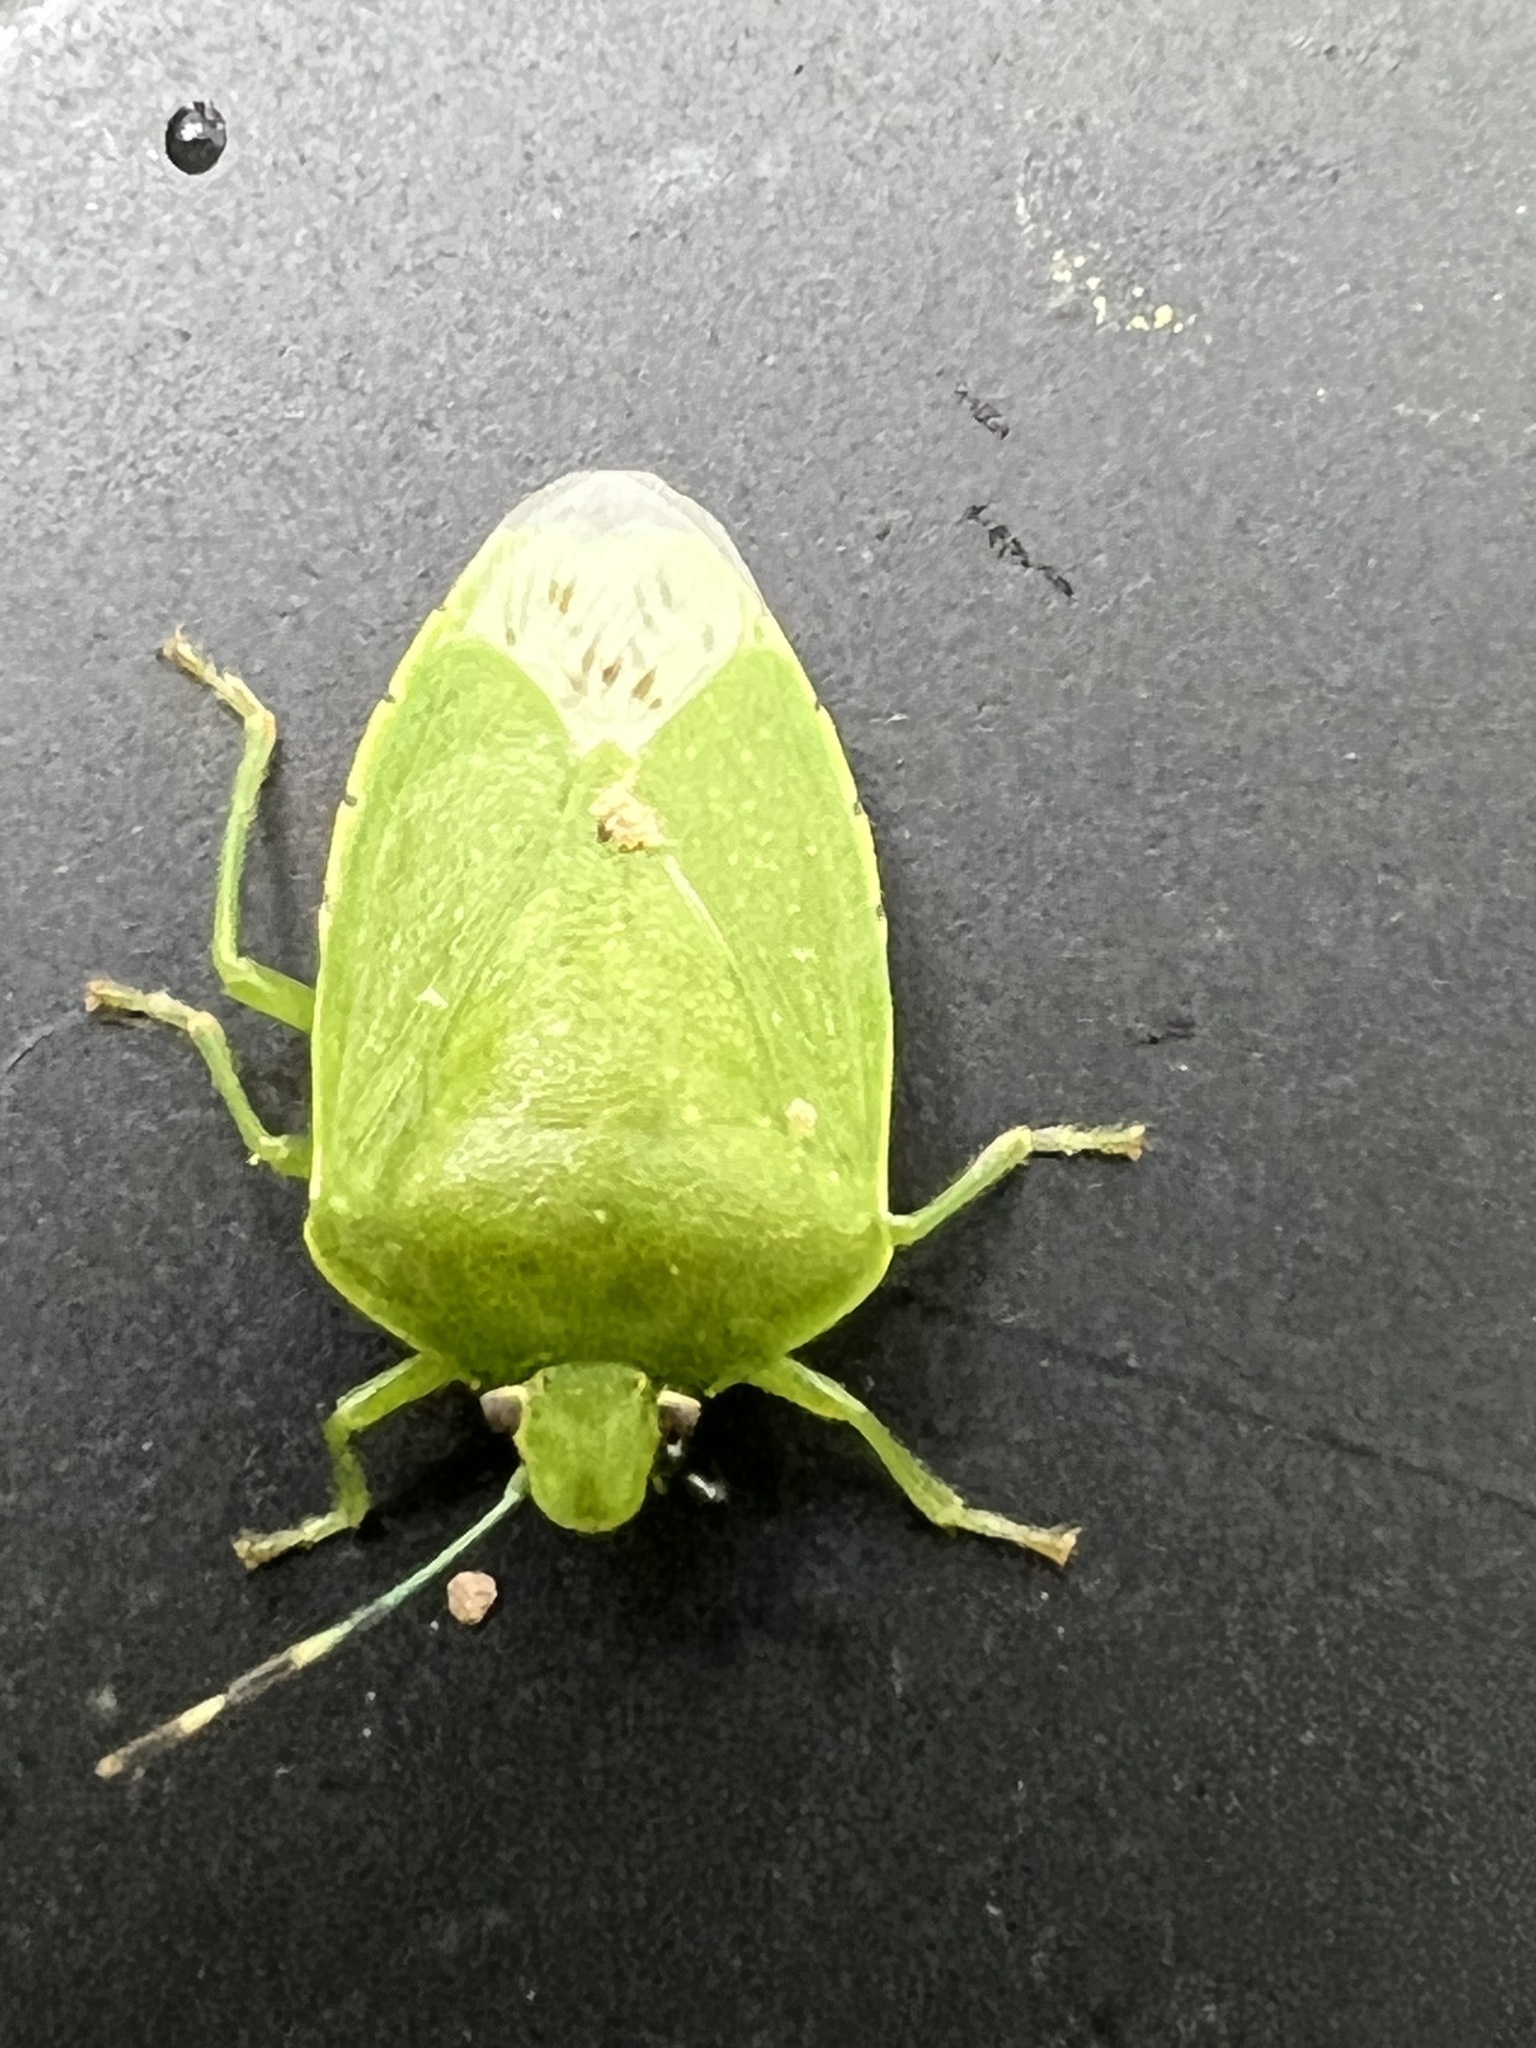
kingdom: Animalia
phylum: Arthropoda
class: Insecta
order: Hemiptera
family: Pentatomidae
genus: Chinavia
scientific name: Chinavia hilaris
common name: Green stink bug
